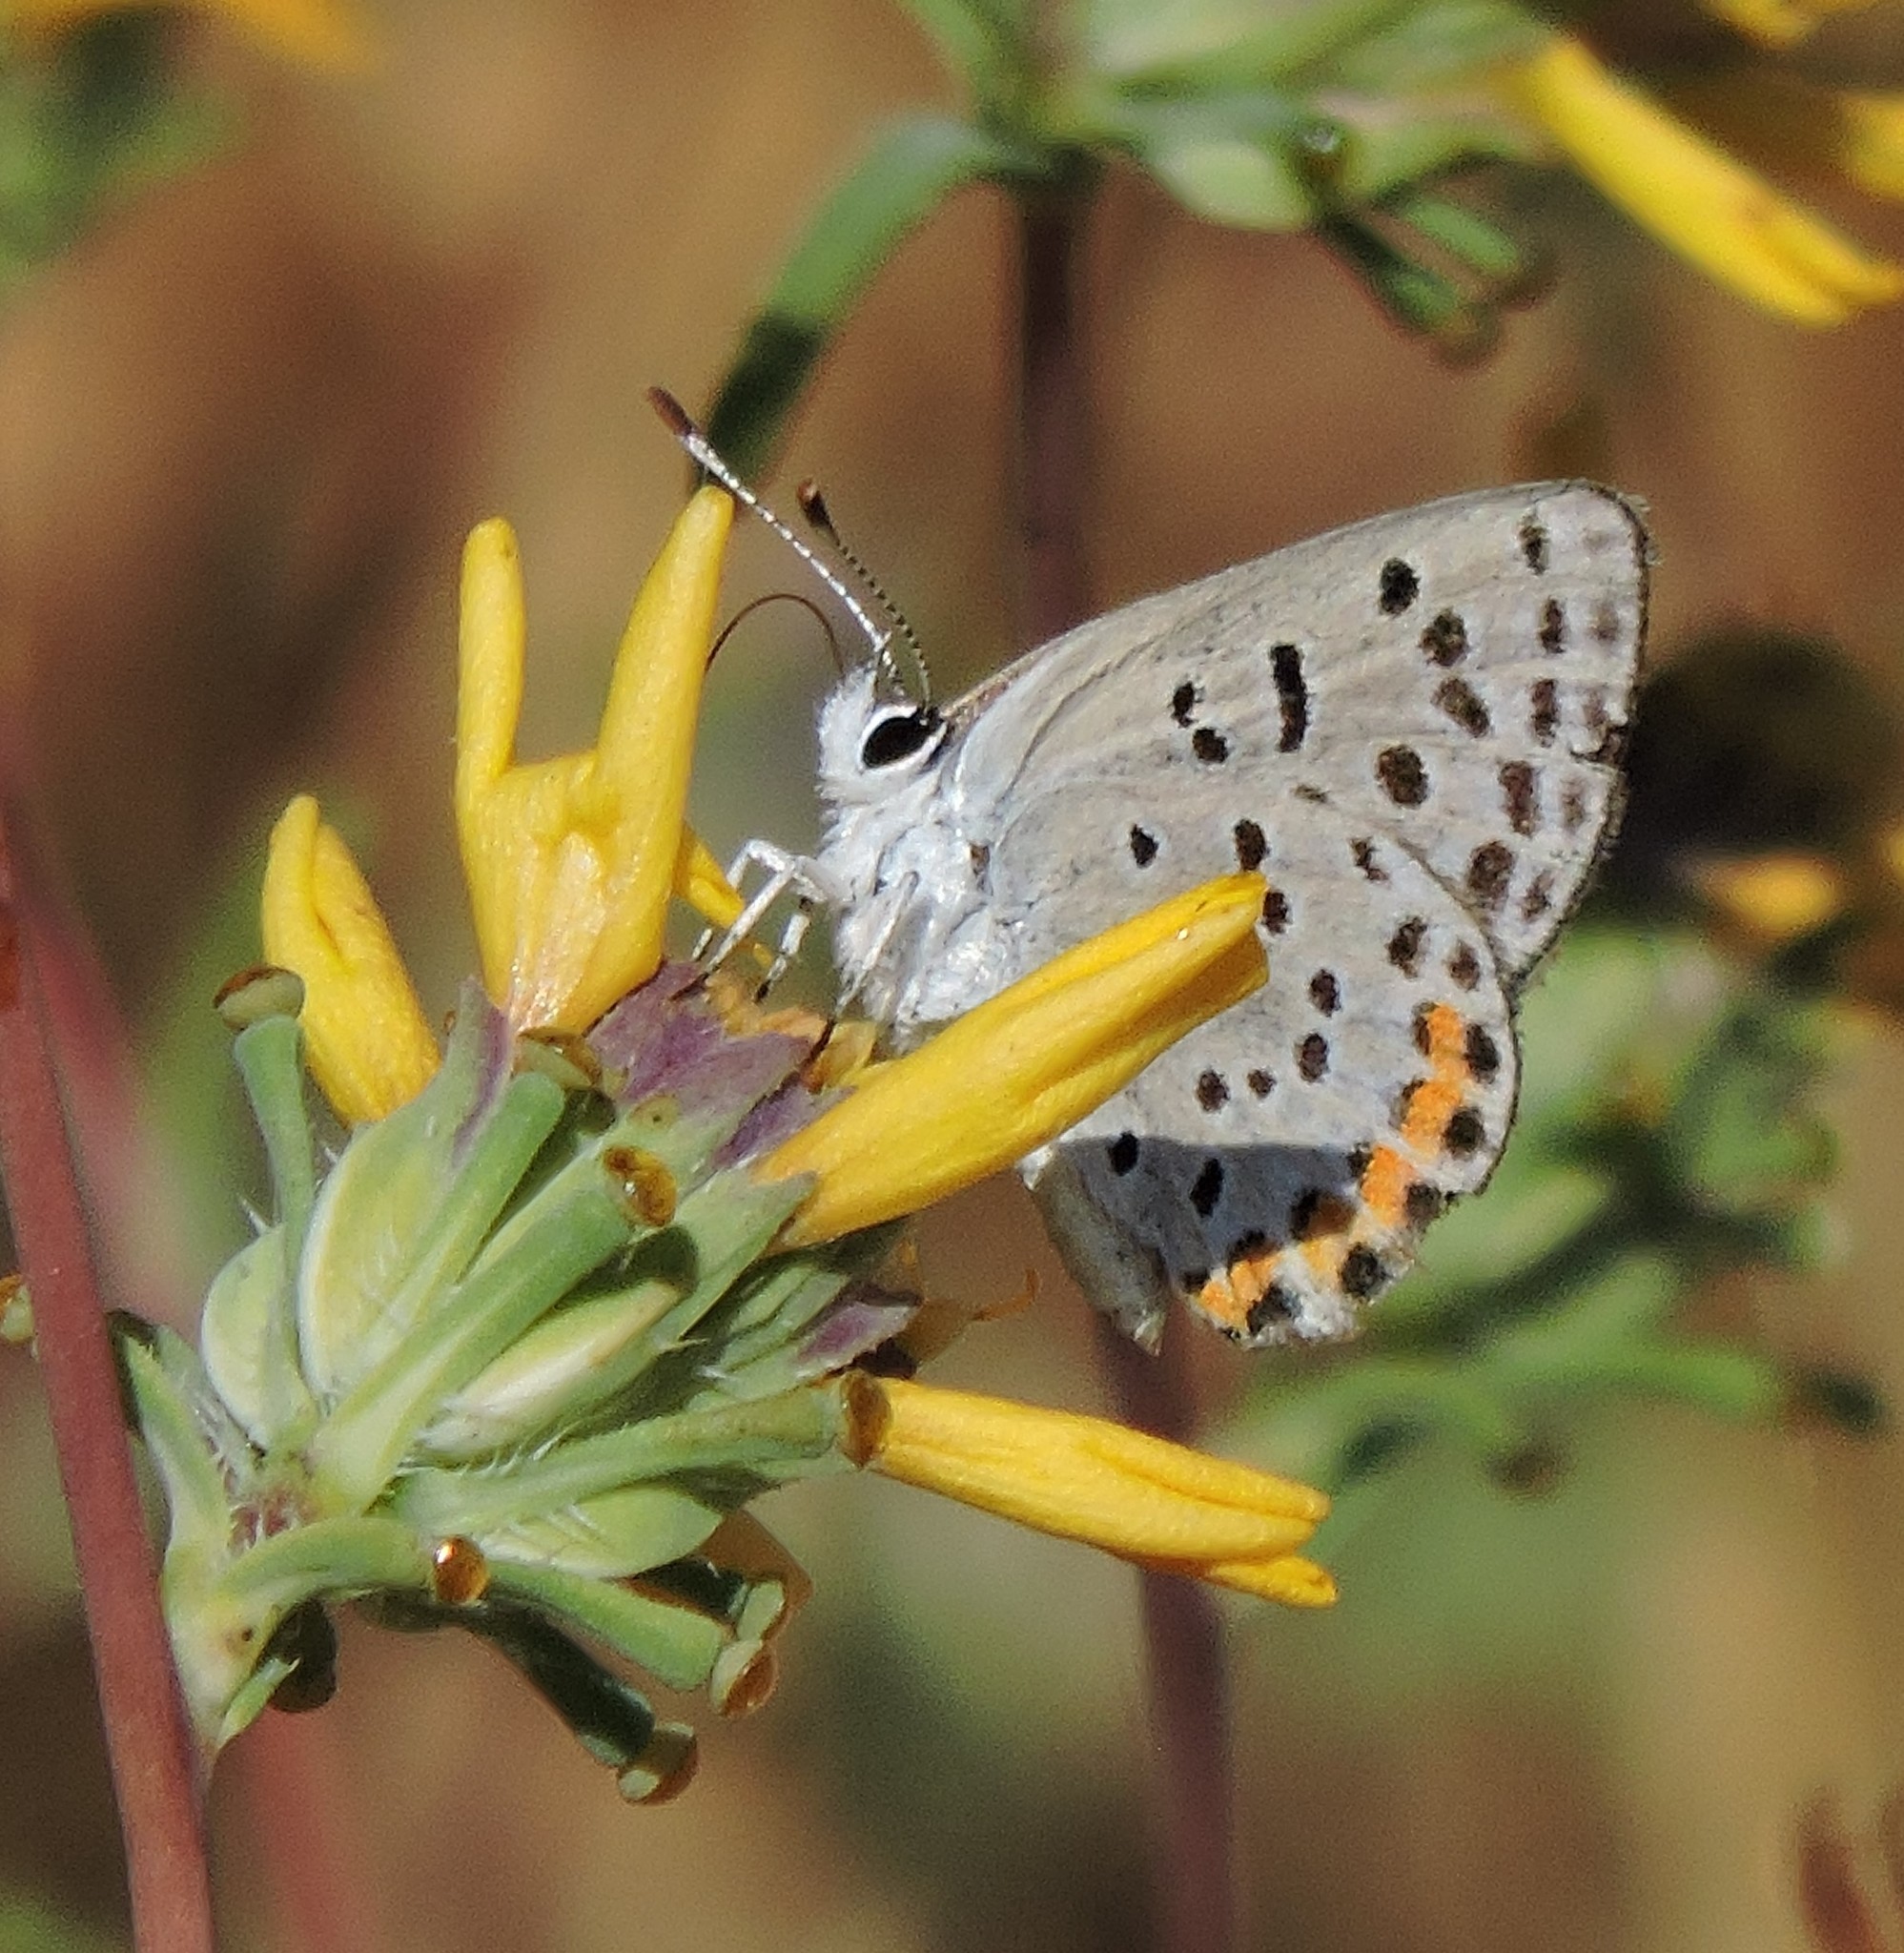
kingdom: Animalia
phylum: Arthropoda
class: Insecta
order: Lepidoptera
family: Lycaenidae
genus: Icaricia
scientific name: Icaricia acmon
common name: Acmon blue
